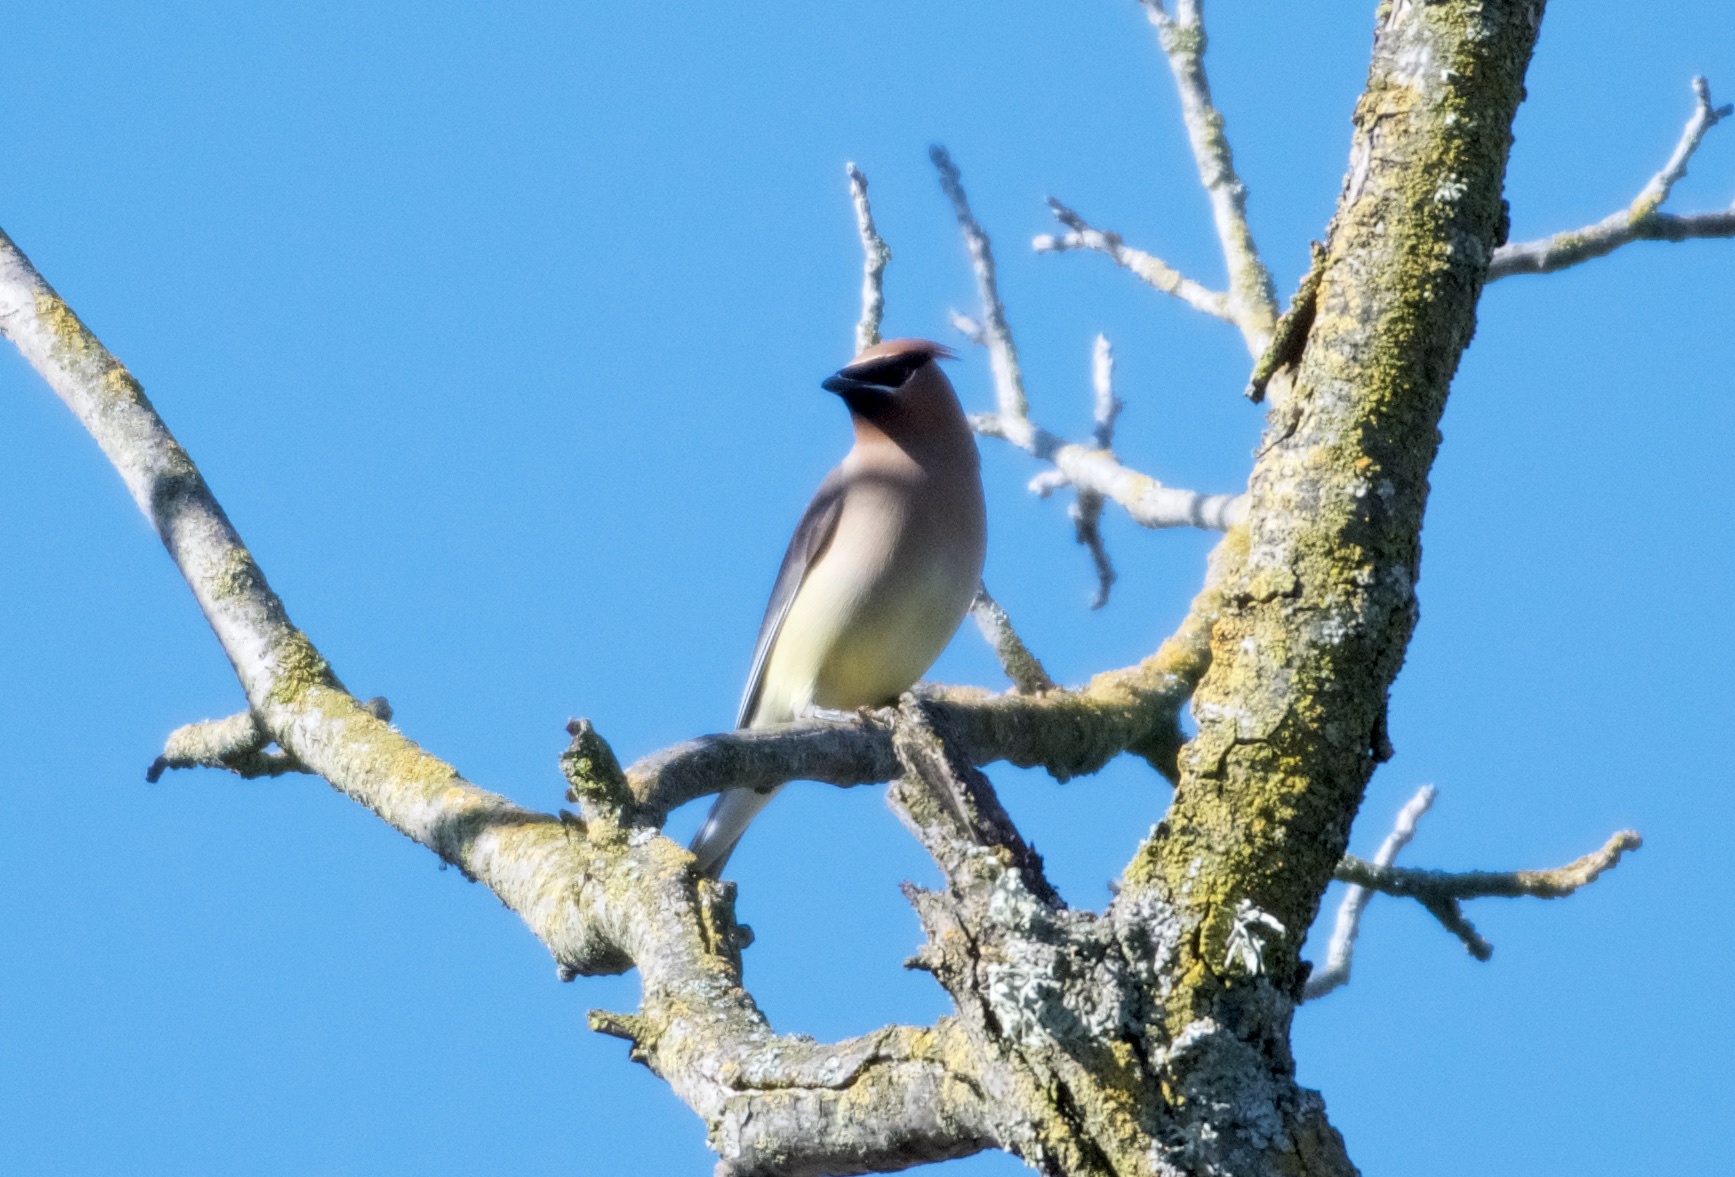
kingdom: Animalia
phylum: Chordata
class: Aves
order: Passeriformes
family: Bombycillidae
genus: Bombycilla
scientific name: Bombycilla cedrorum
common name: Cedar waxwing
